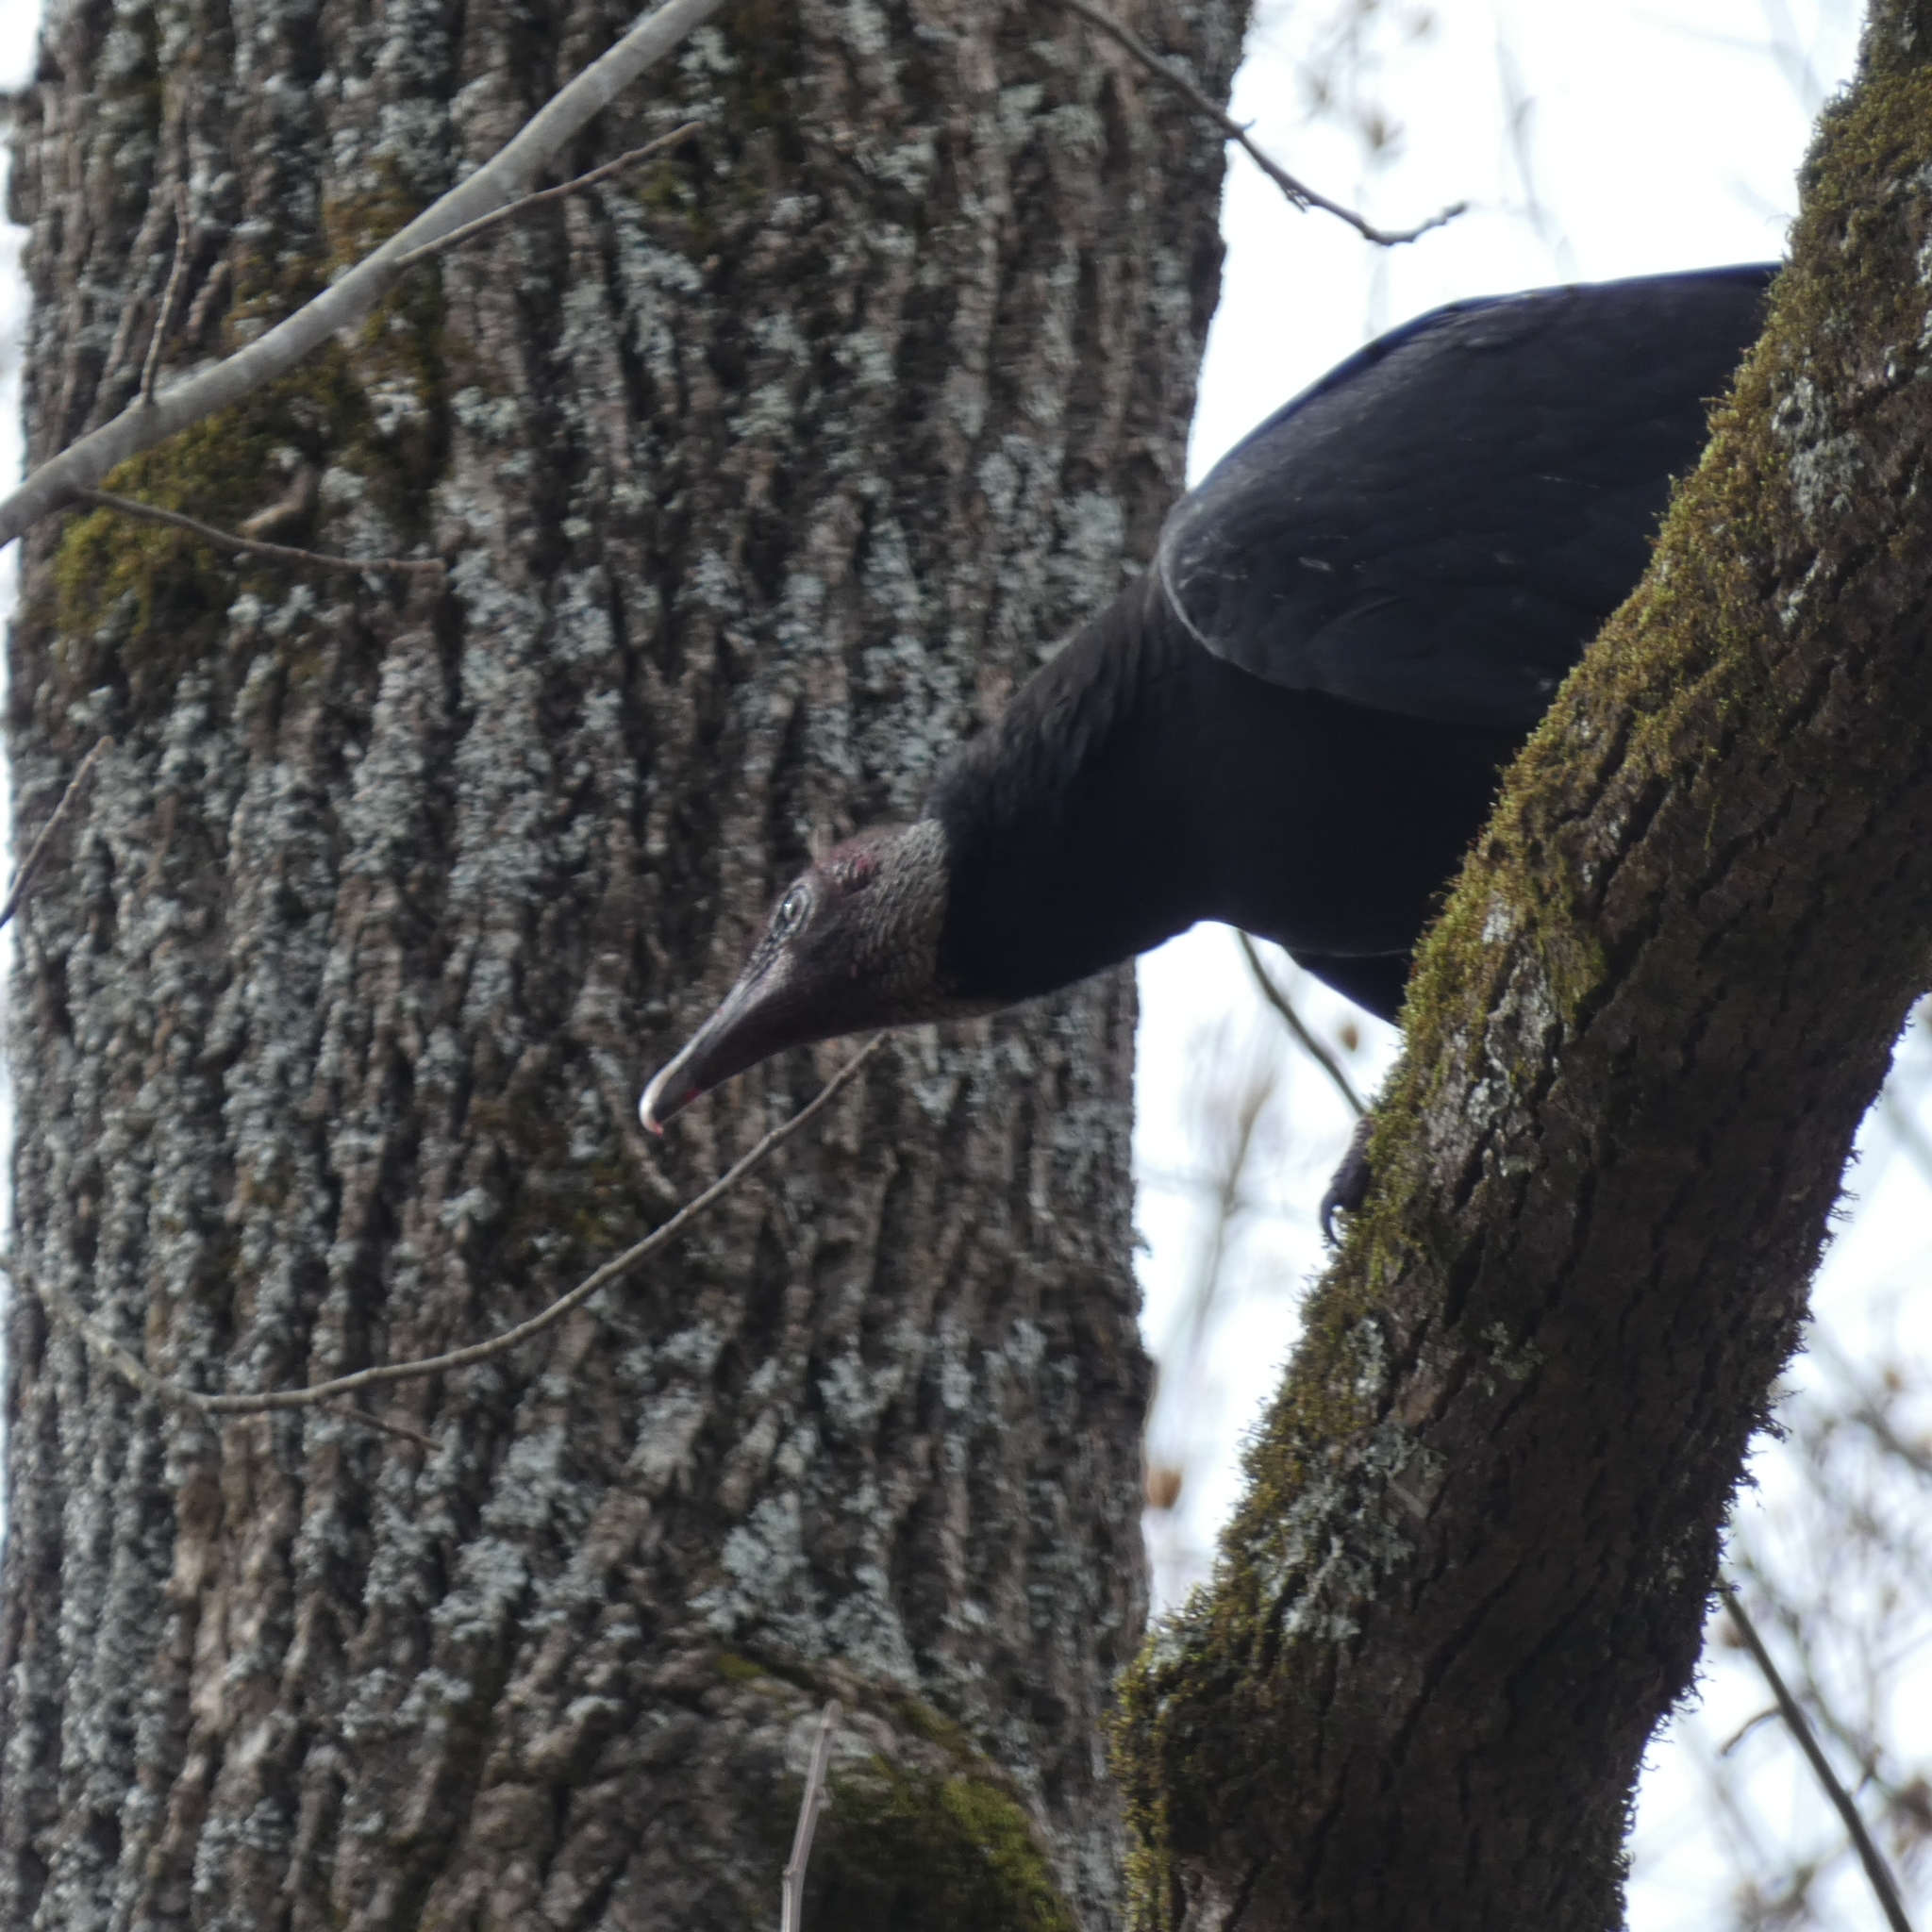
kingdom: Animalia
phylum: Chordata
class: Aves
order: Accipitriformes
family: Cathartidae
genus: Coragyps
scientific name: Coragyps atratus
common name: Black vulture
